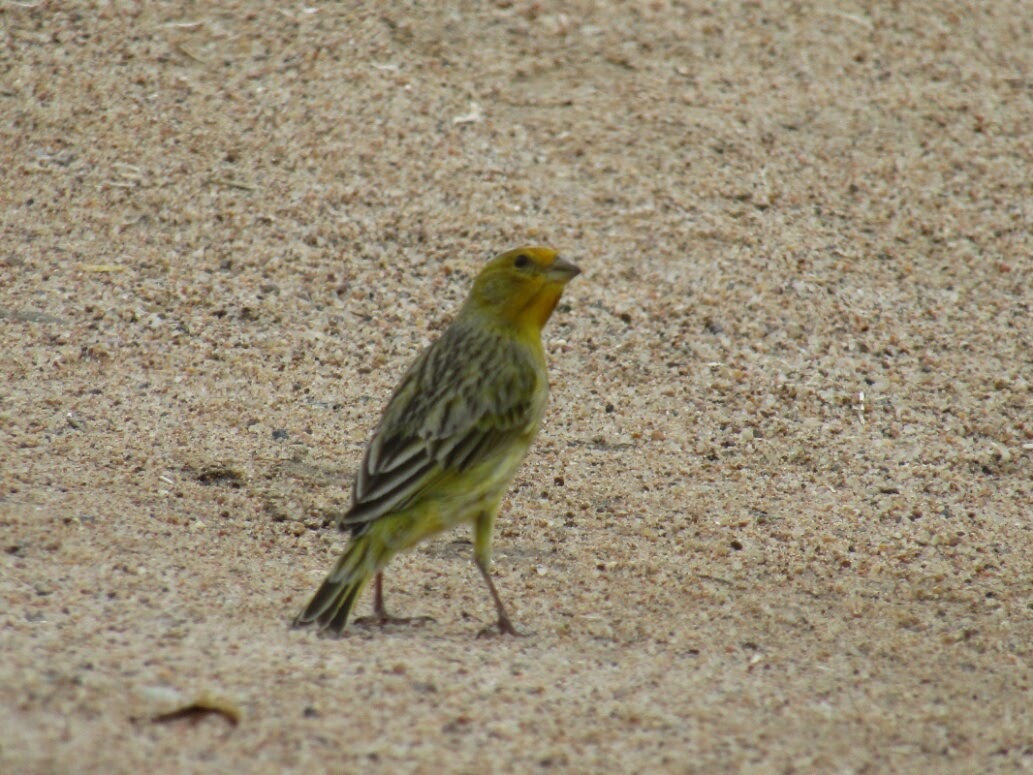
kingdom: Animalia
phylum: Chordata
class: Aves
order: Passeriformes
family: Thraupidae
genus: Sicalis
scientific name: Sicalis flaveola
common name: Saffron finch
